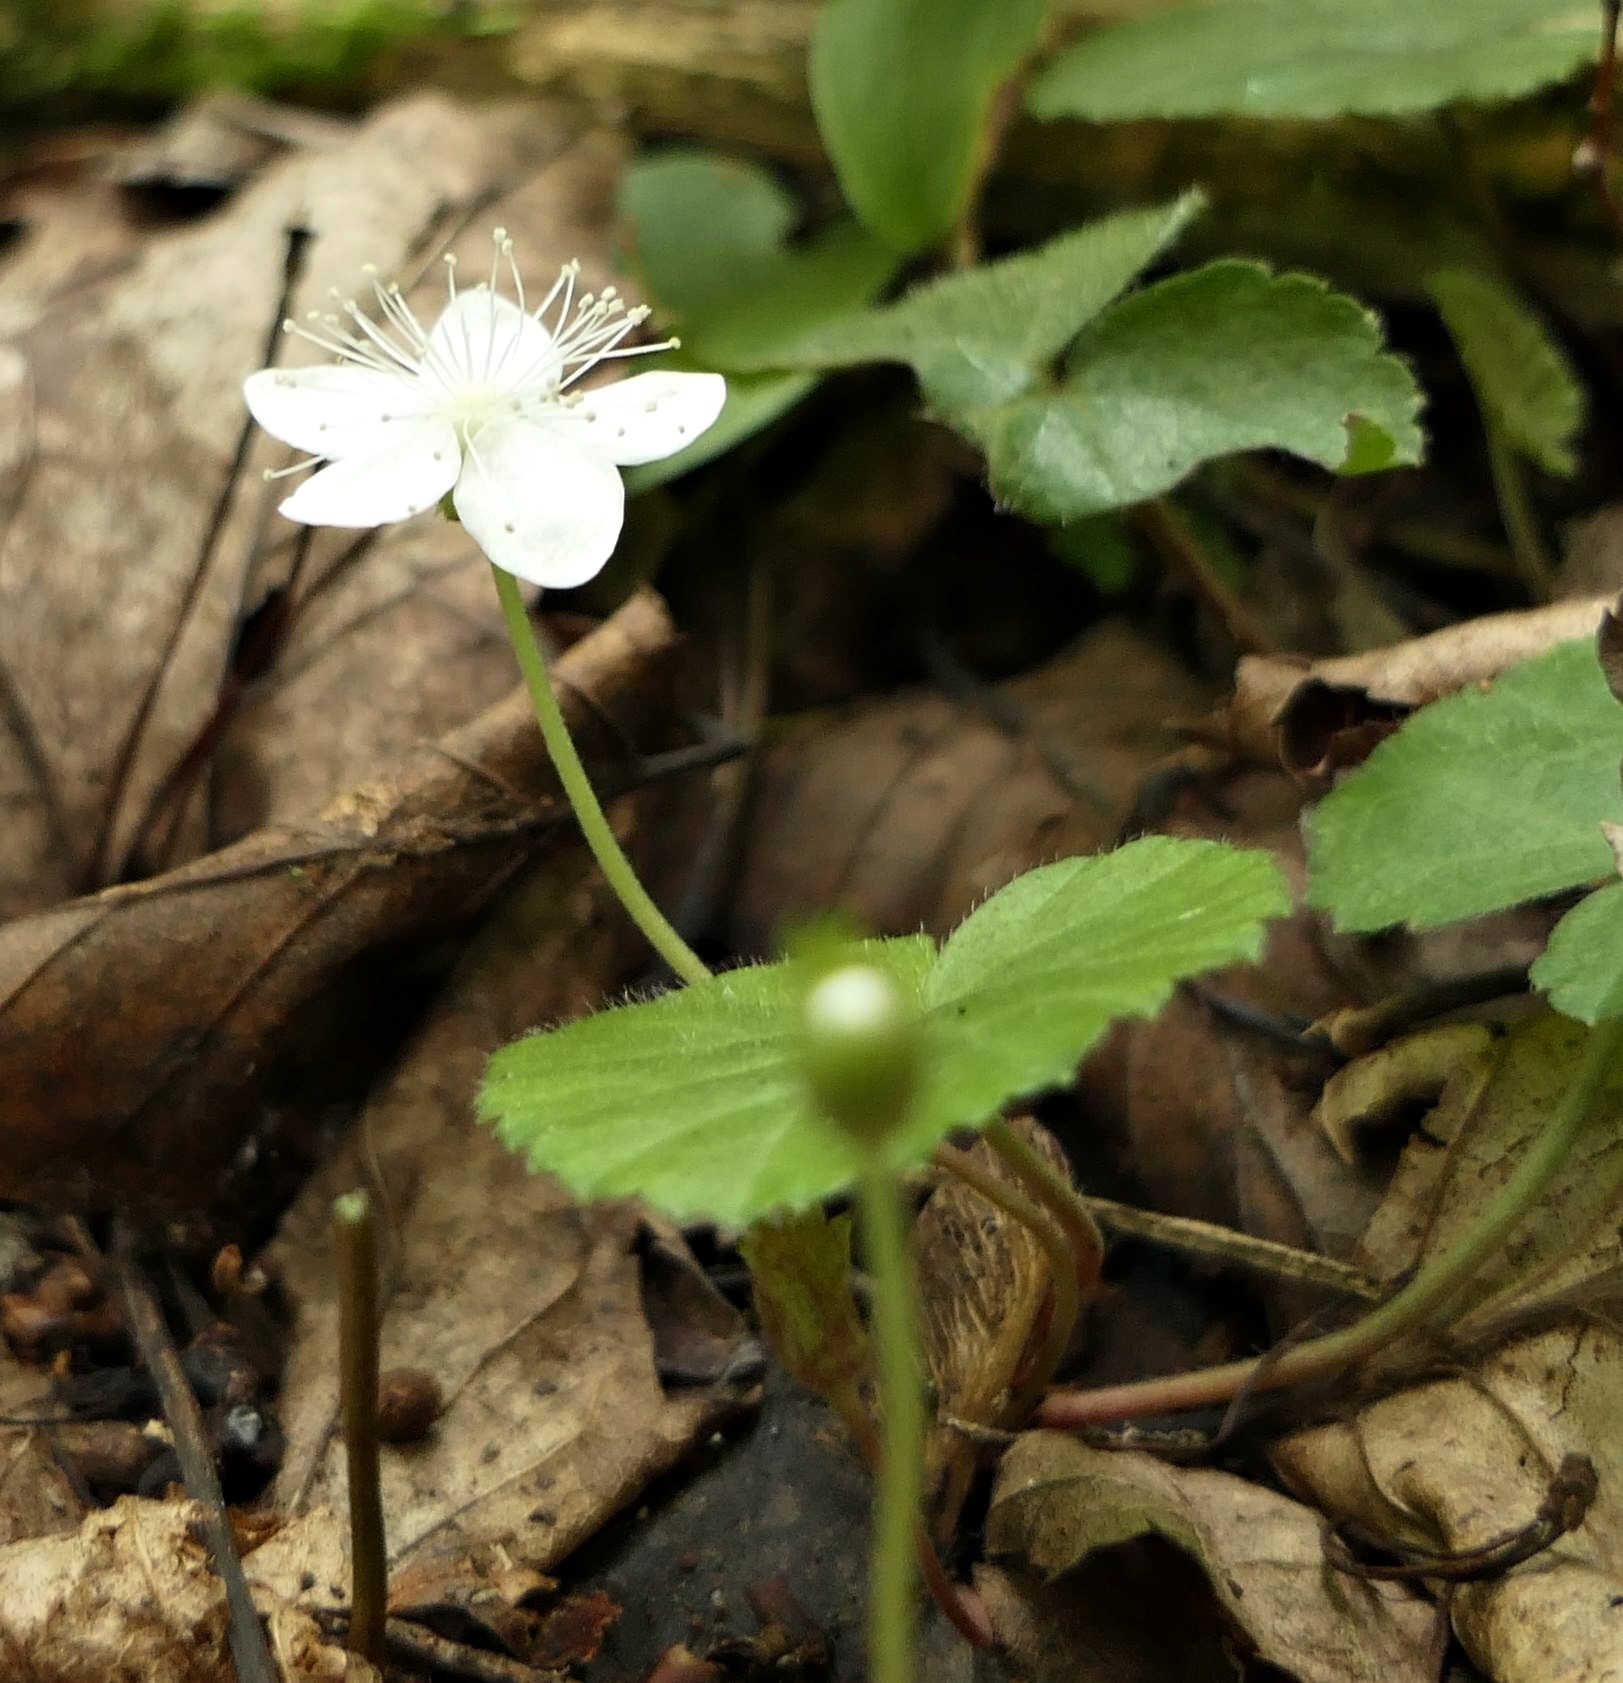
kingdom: Plantae
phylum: Tracheophyta
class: Magnoliopsida
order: Rosales
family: Rosaceae
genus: Dalibarda
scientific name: Dalibarda repens
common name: Dewdrop
